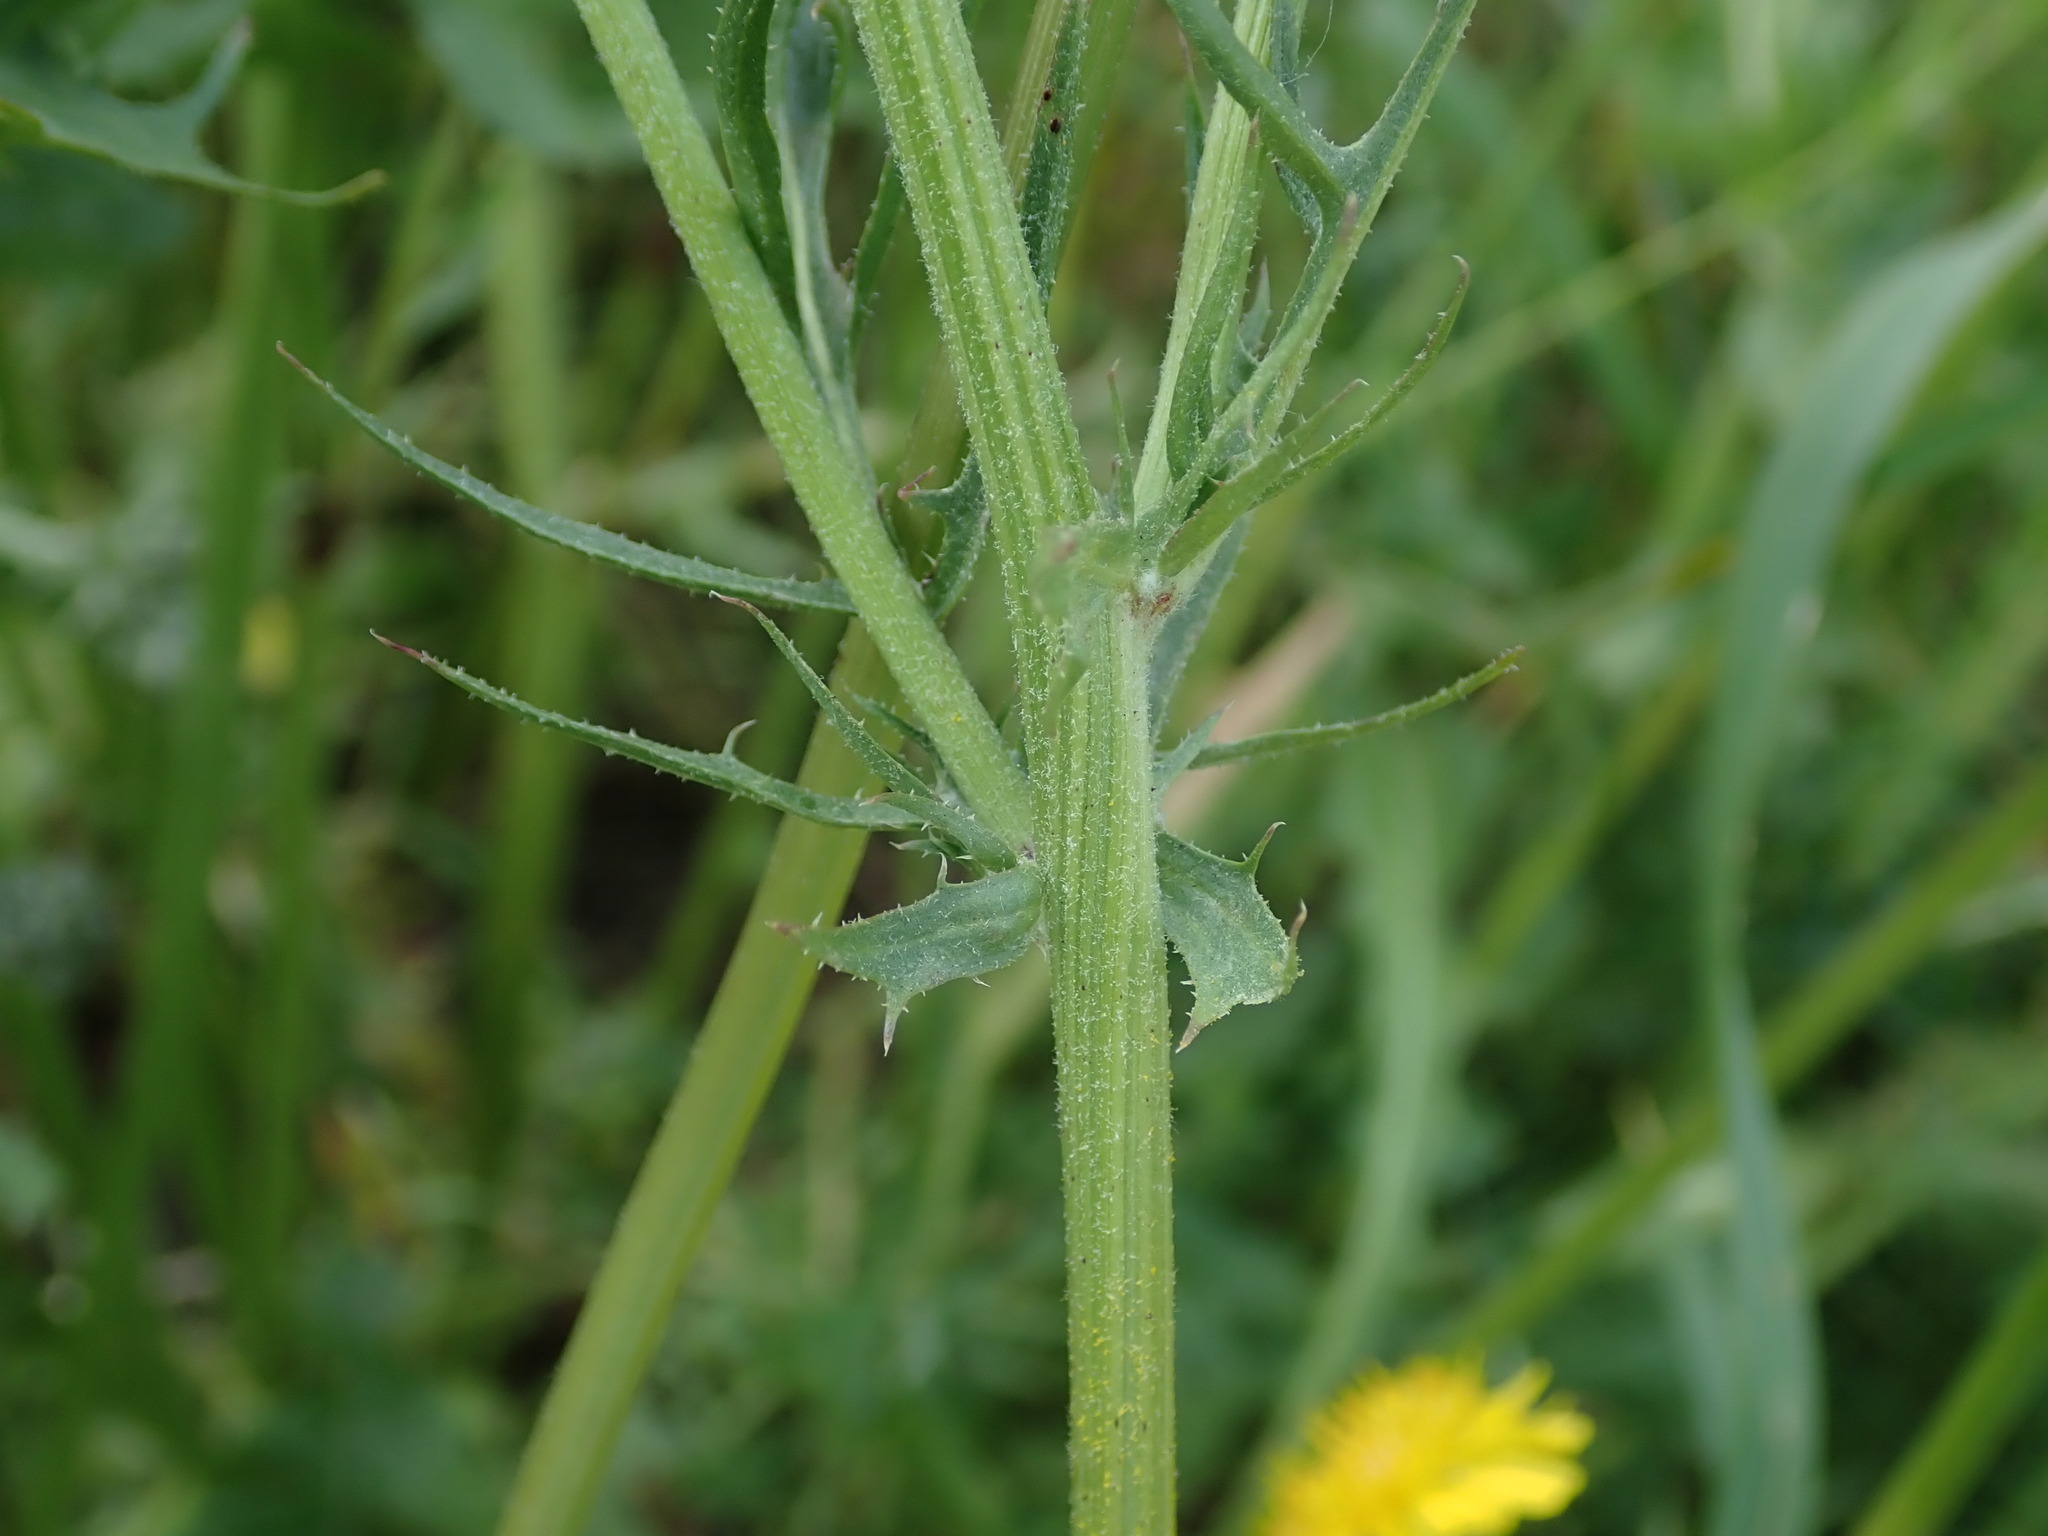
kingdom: Plantae
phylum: Tracheophyta
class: Magnoliopsida
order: Asterales
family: Asteraceae
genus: Crepis
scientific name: Crepis vesicaria
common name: Beaked hawksbeard
